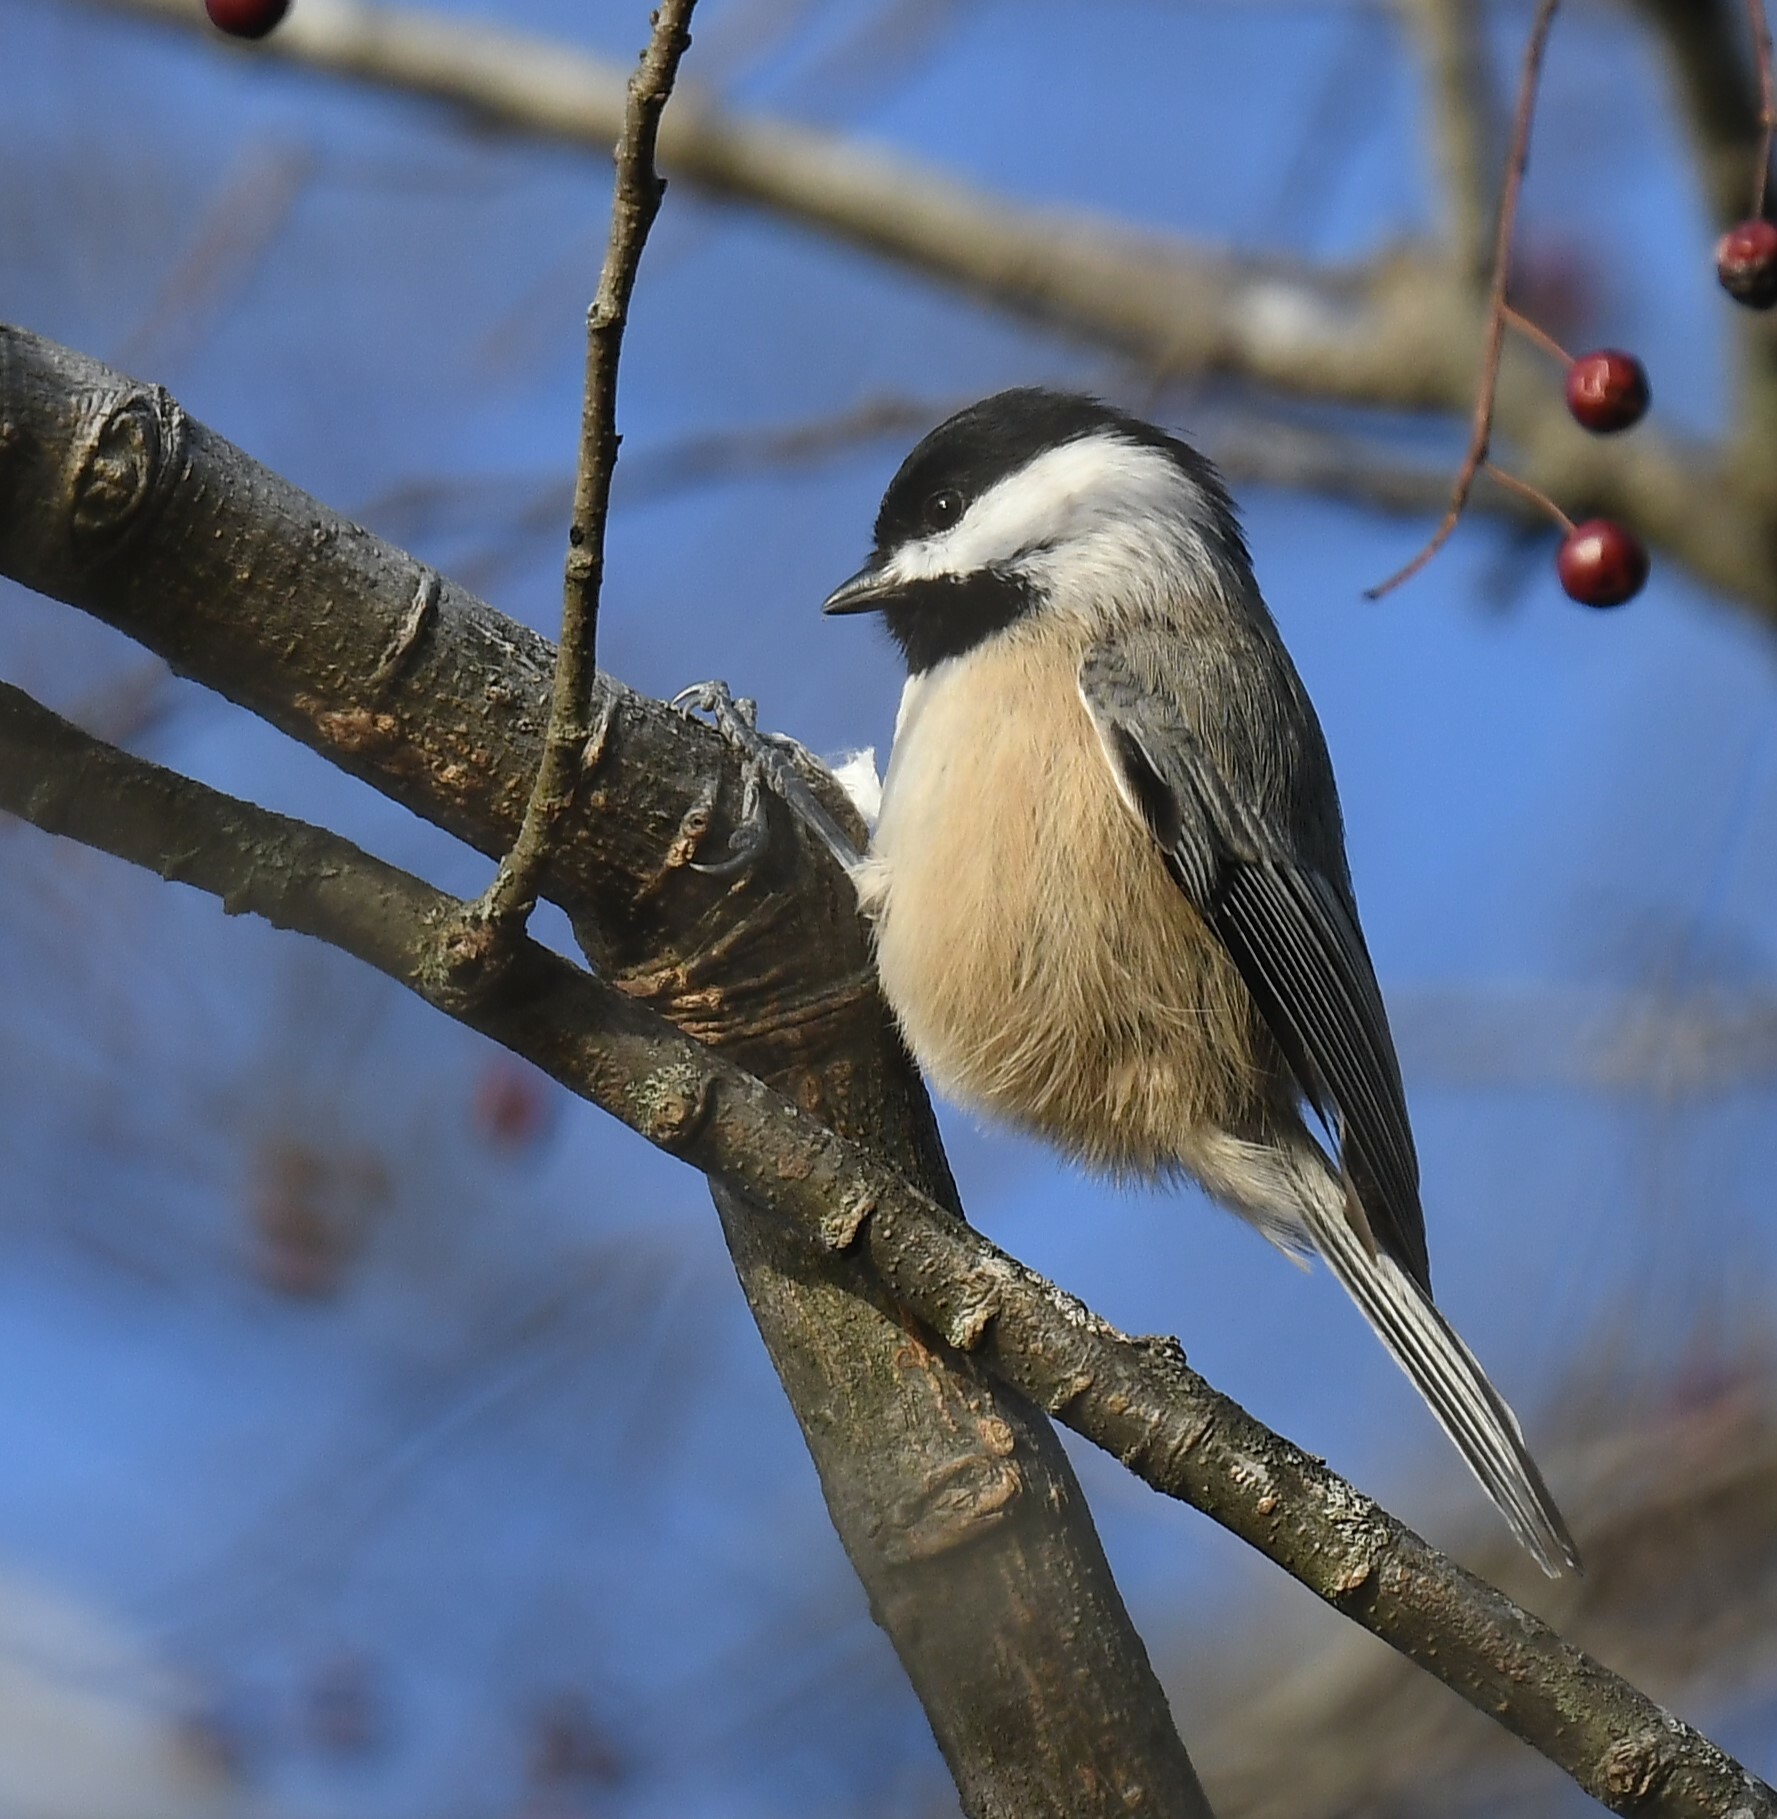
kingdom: Animalia
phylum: Chordata
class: Aves
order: Passeriformes
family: Paridae
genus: Poecile
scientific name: Poecile
